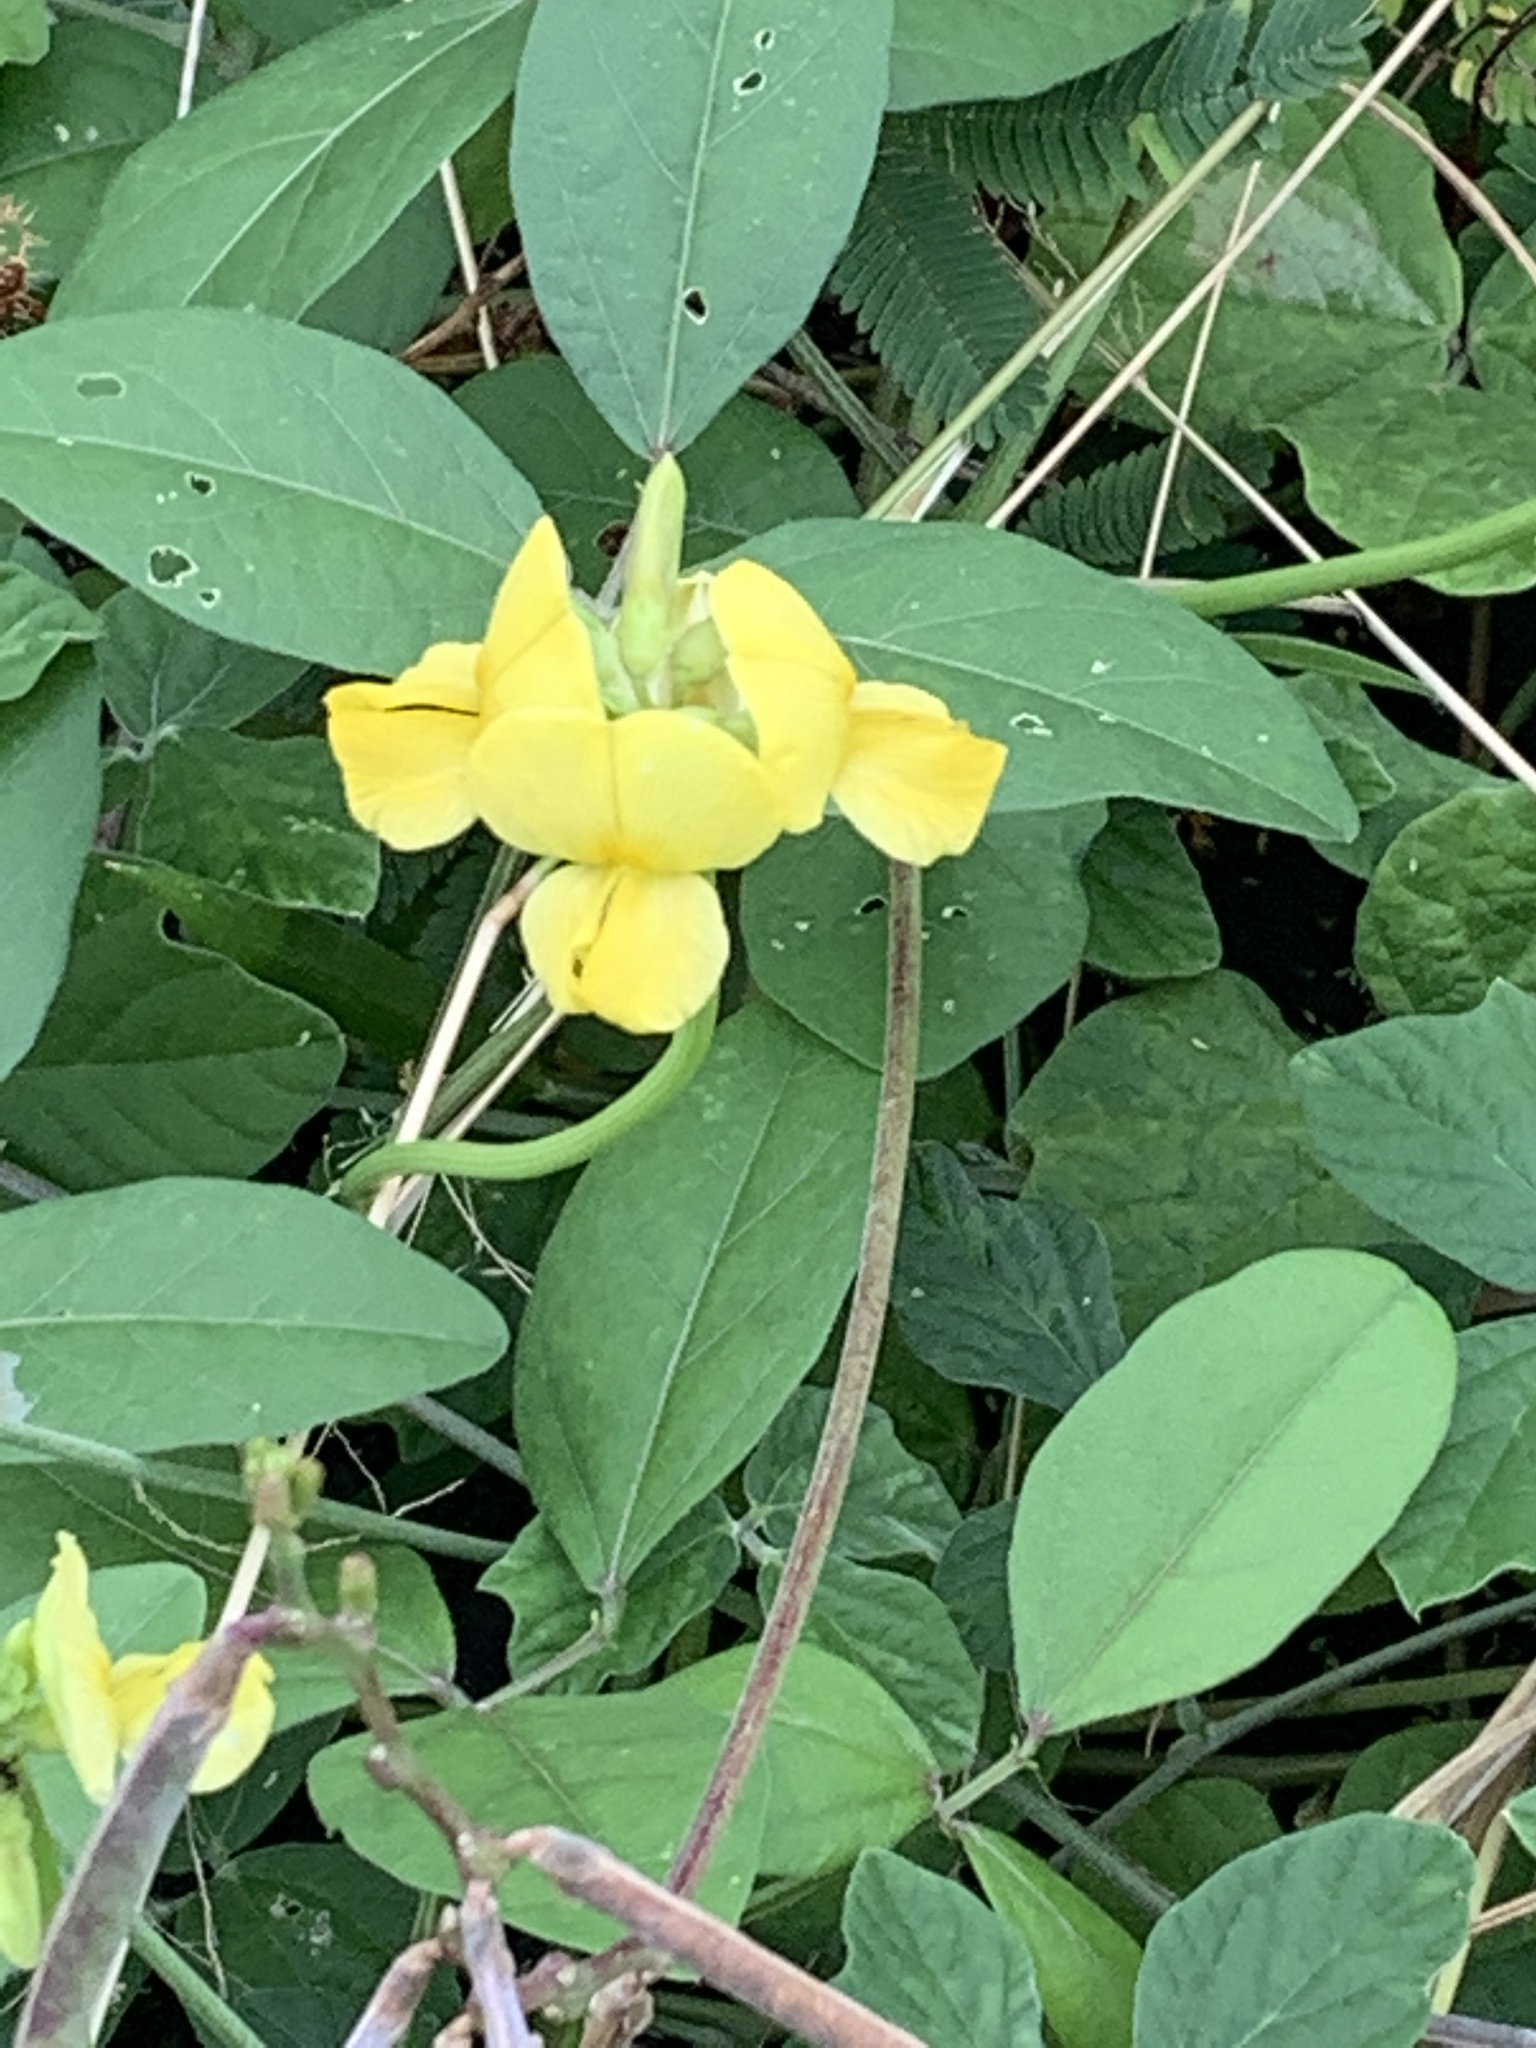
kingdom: Plantae
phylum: Tracheophyta
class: Magnoliopsida
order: Fabales
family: Fabaceae
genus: Vigna
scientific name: Vigna luteola
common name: Hairypod cowpea
